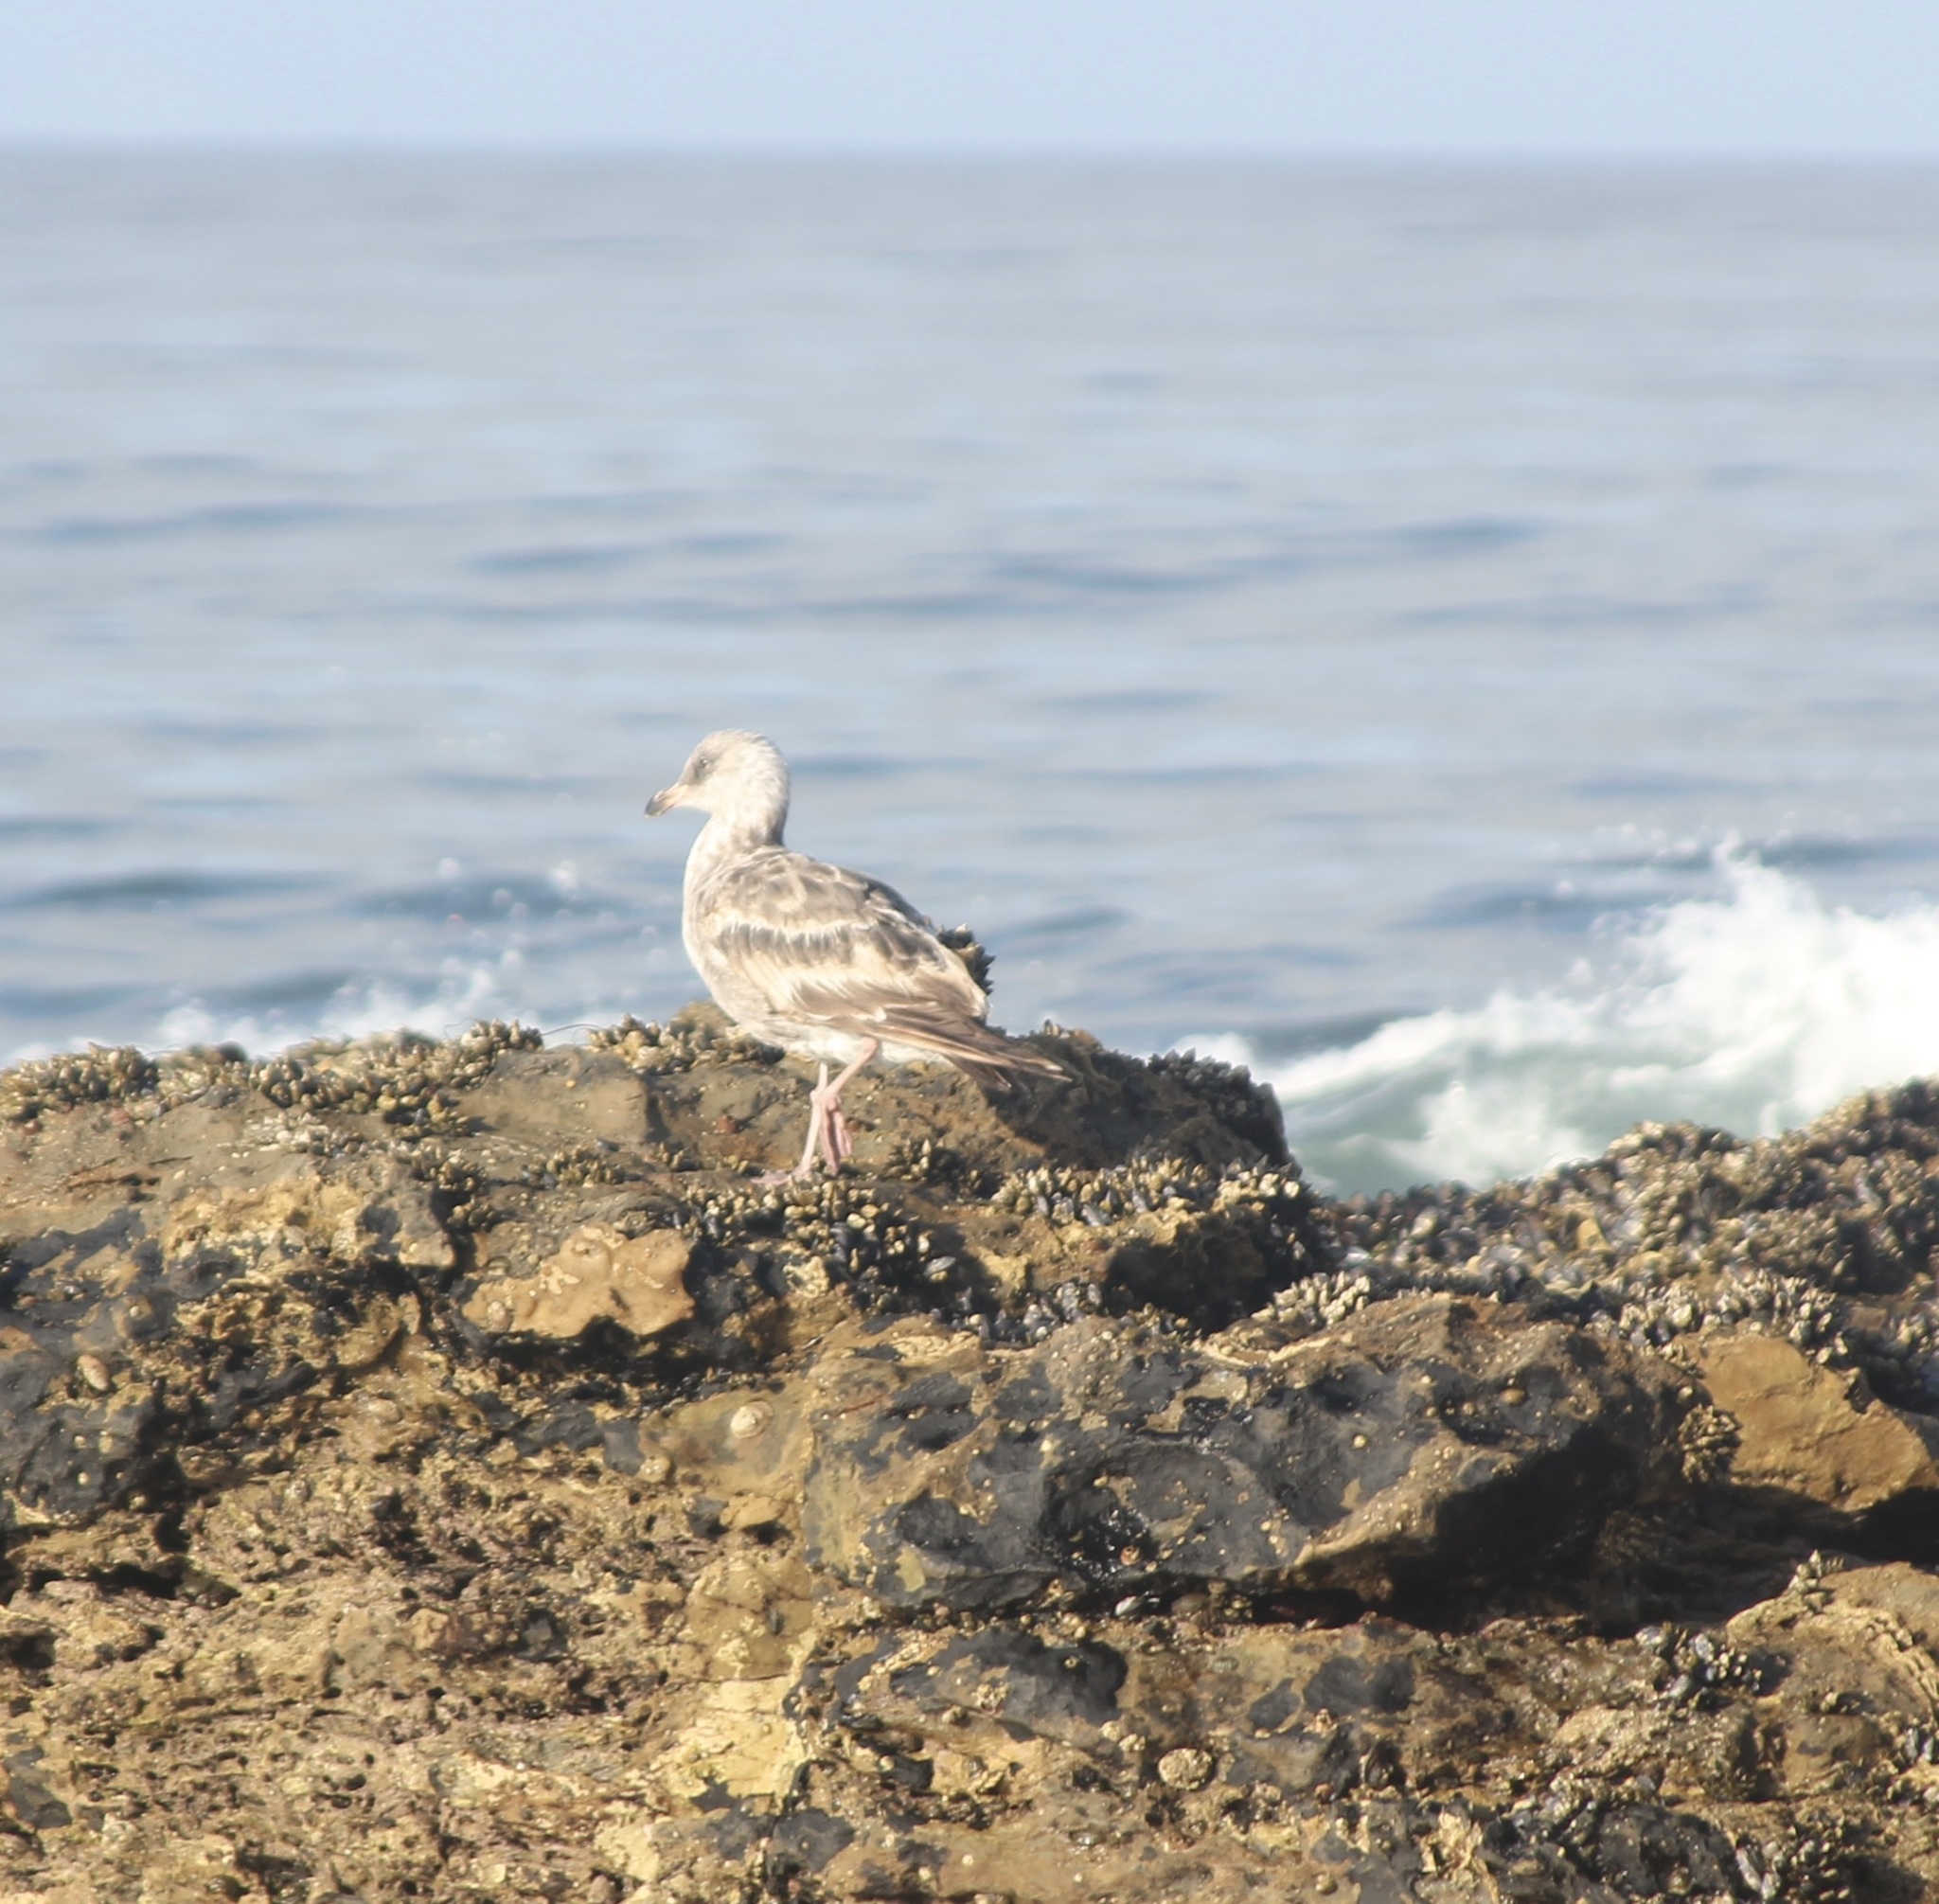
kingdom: Animalia
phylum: Chordata
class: Aves
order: Charadriiformes
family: Laridae
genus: Larus
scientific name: Larus occidentalis
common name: Western gull
